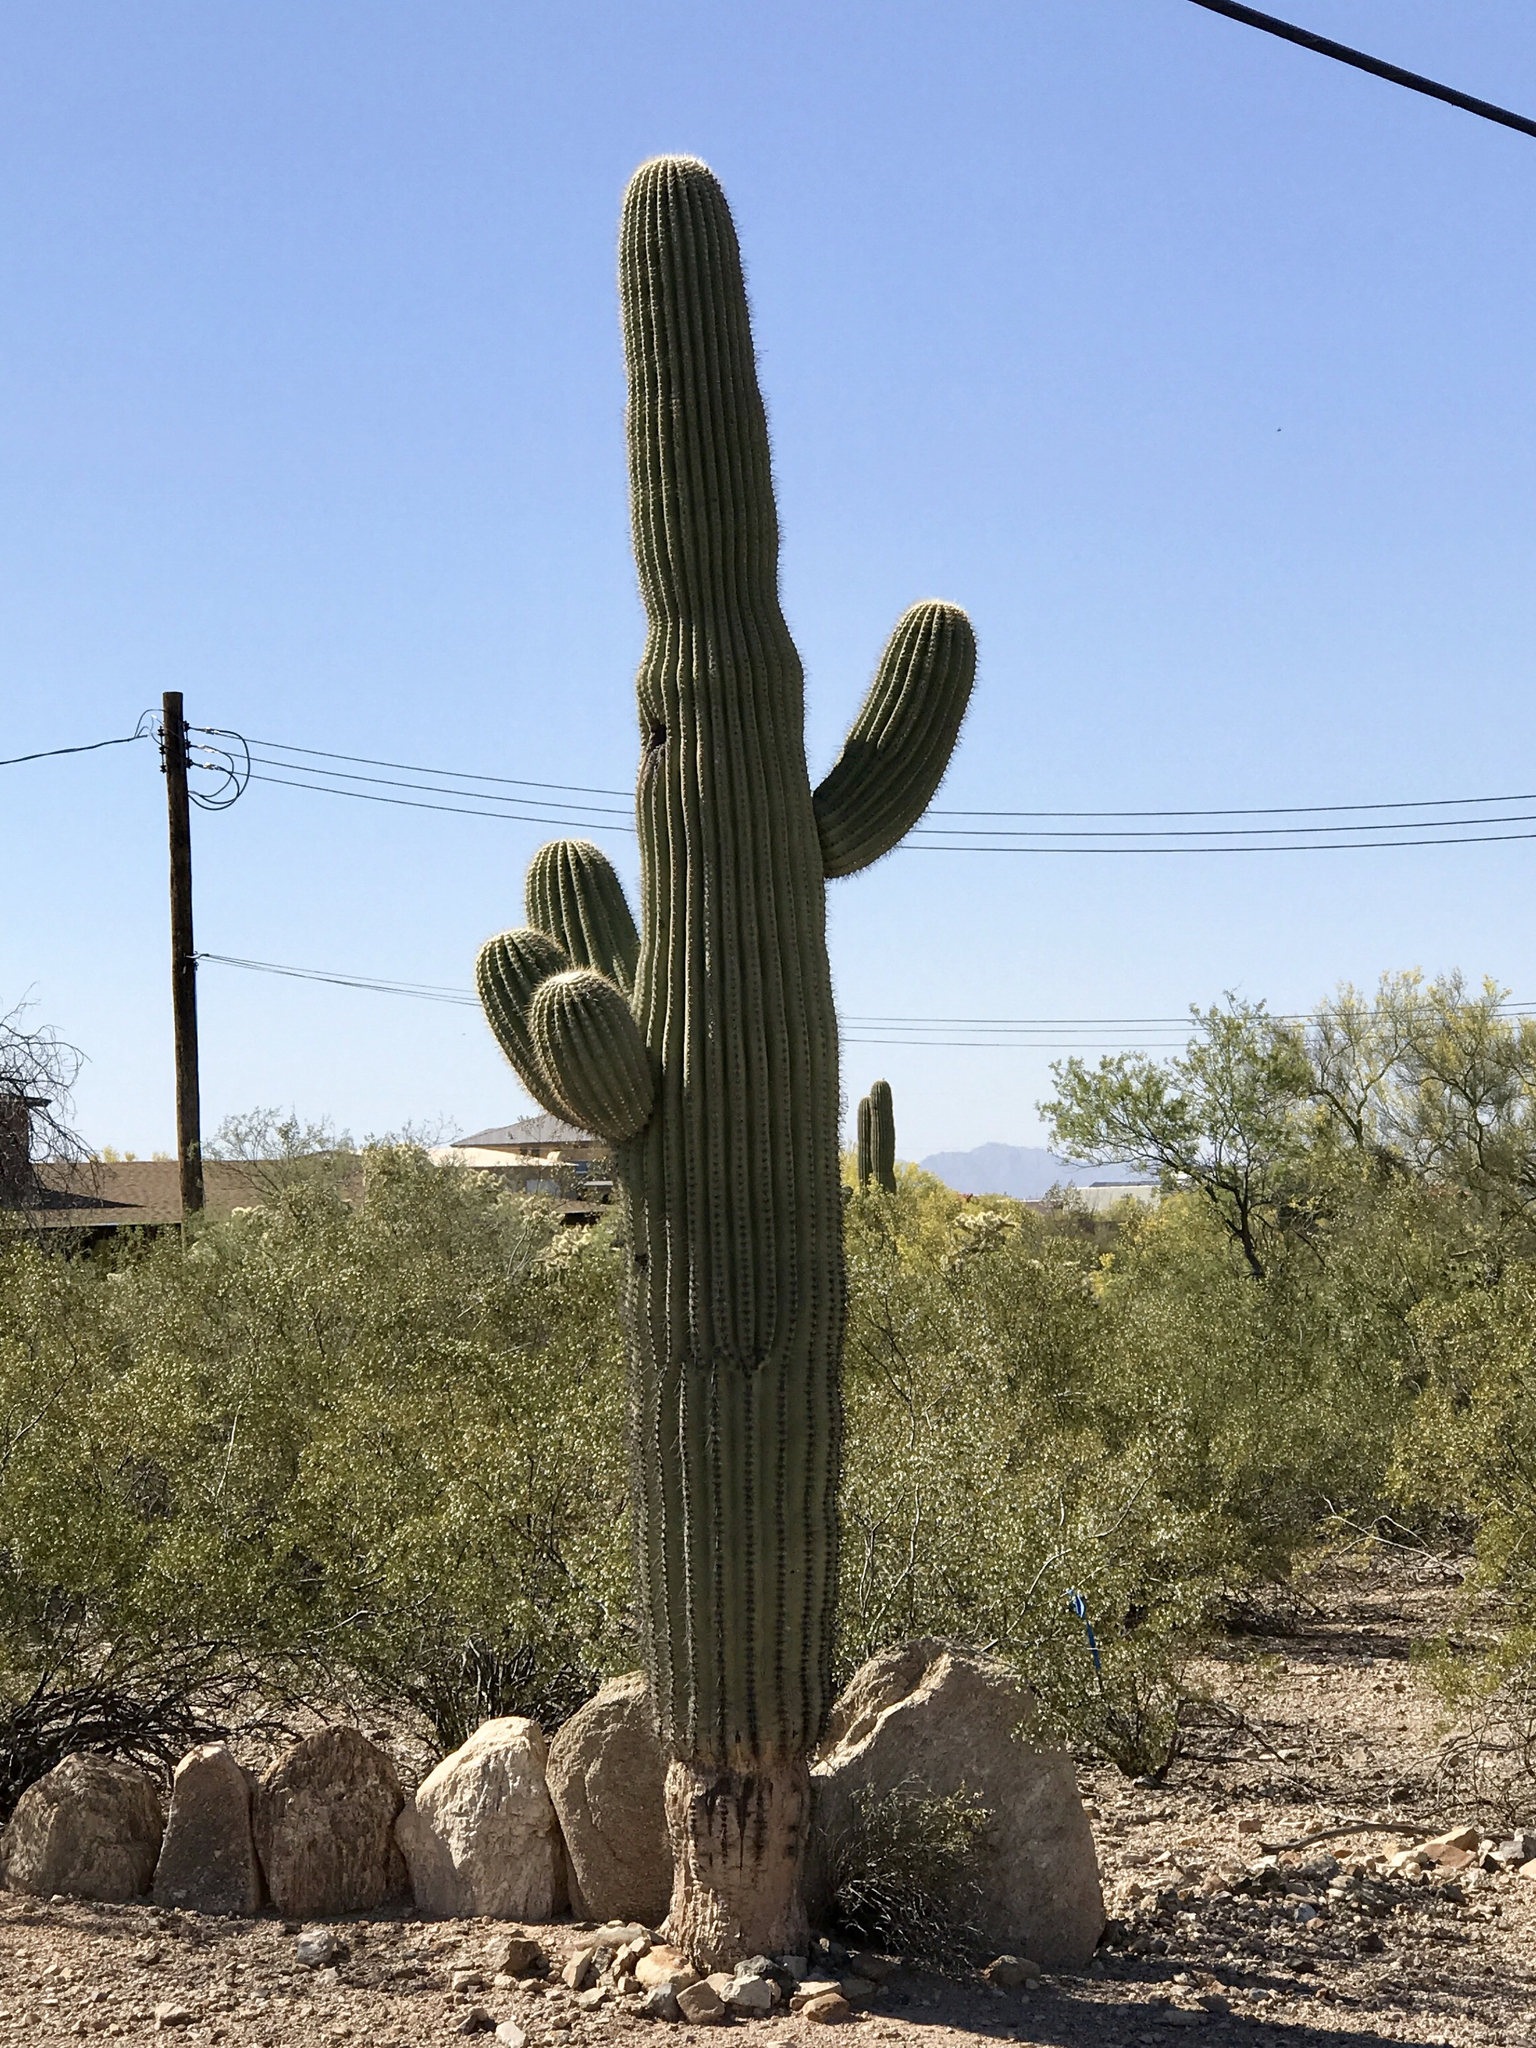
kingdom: Plantae
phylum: Tracheophyta
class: Magnoliopsida
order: Caryophyllales
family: Cactaceae
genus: Carnegiea
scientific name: Carnegiea gigantea
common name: Saguaro
